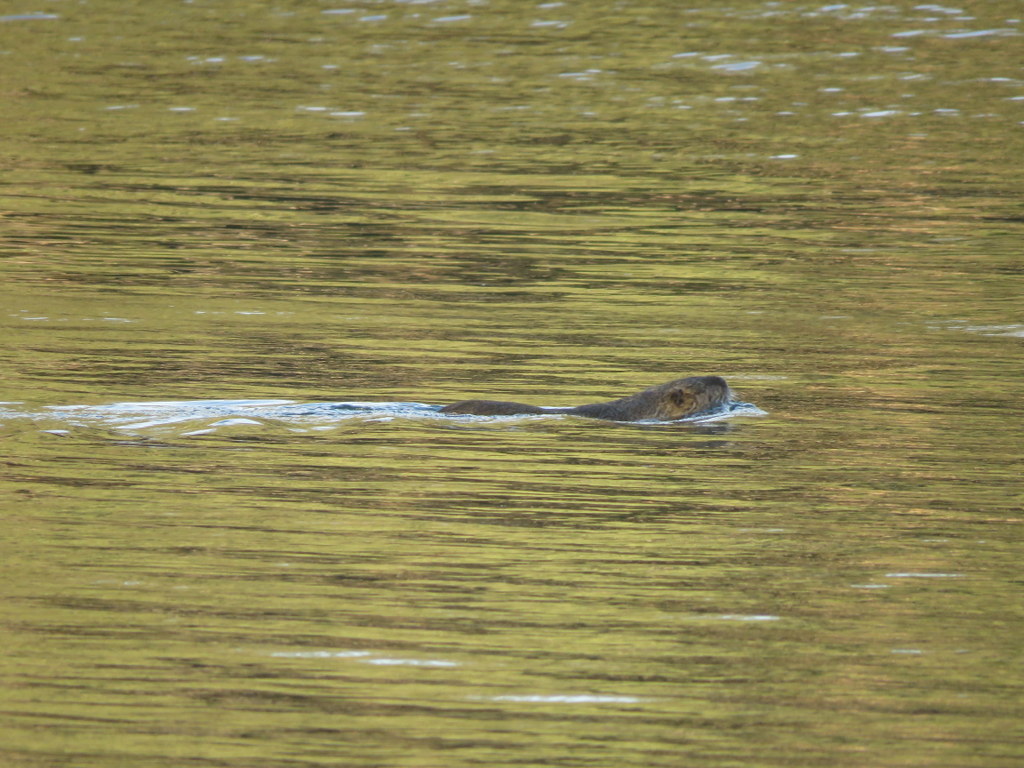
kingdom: Animalia
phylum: Chordata
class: Mammalia
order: Rodentia
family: Myocastoridae
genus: Myocastor
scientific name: Myocastor coypus
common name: Coypu
